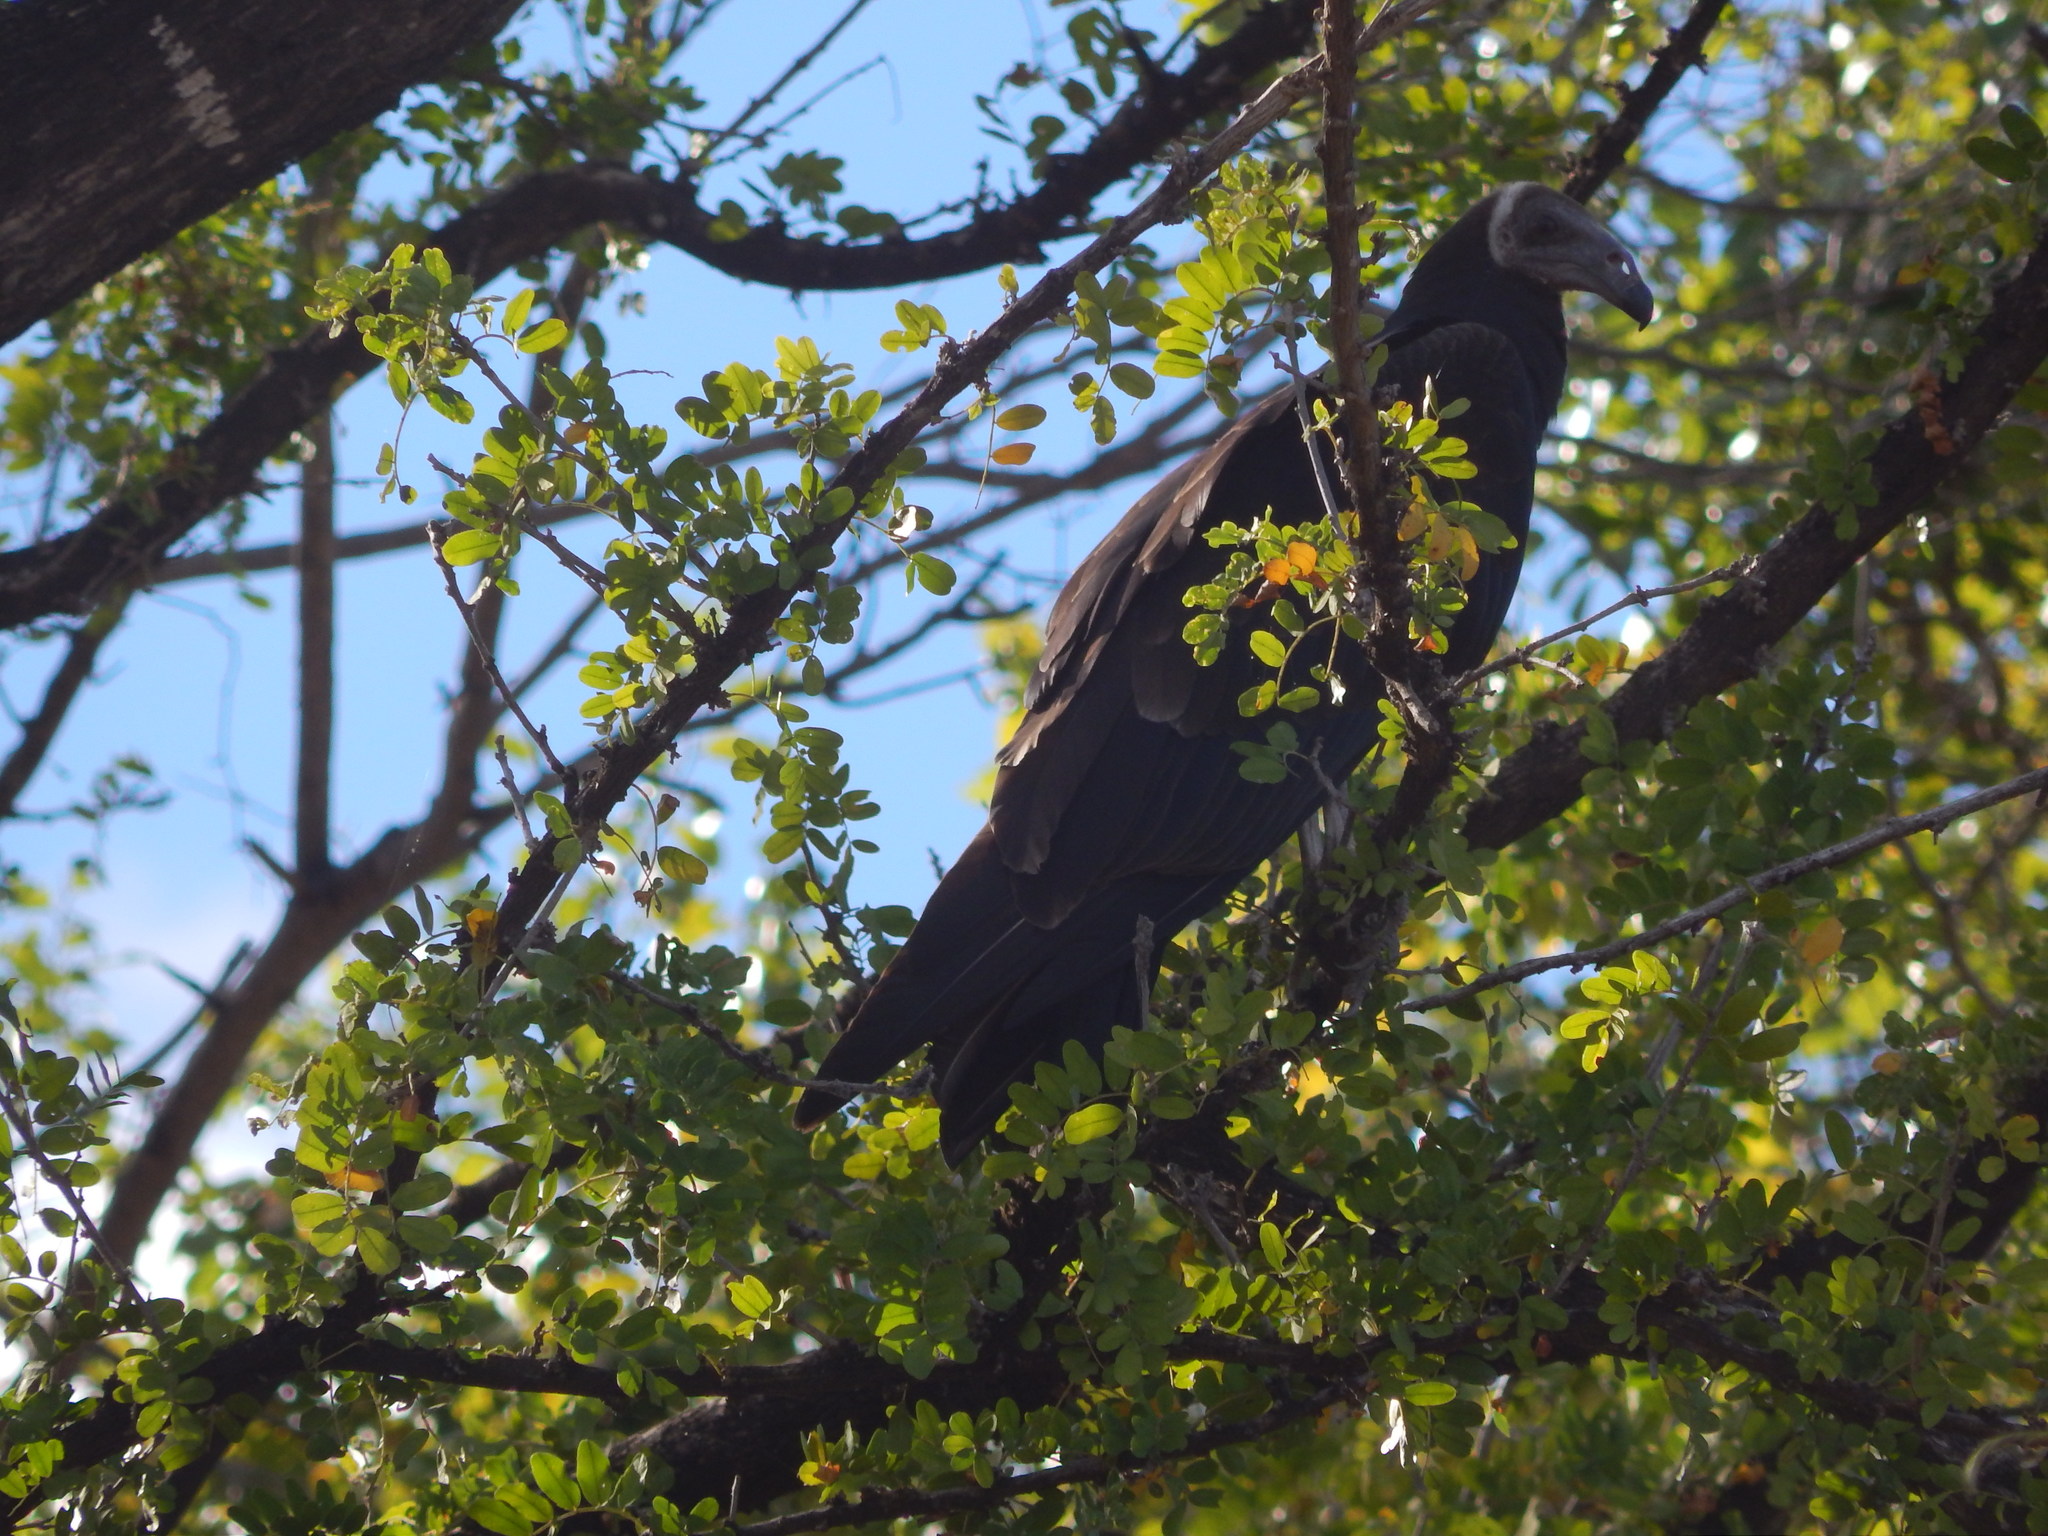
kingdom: Animalia
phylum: Chordata
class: Aves
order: Accipitriformes
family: Cathartidae
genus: Cathartes
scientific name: Cathartes aura
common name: Turkey vulture
